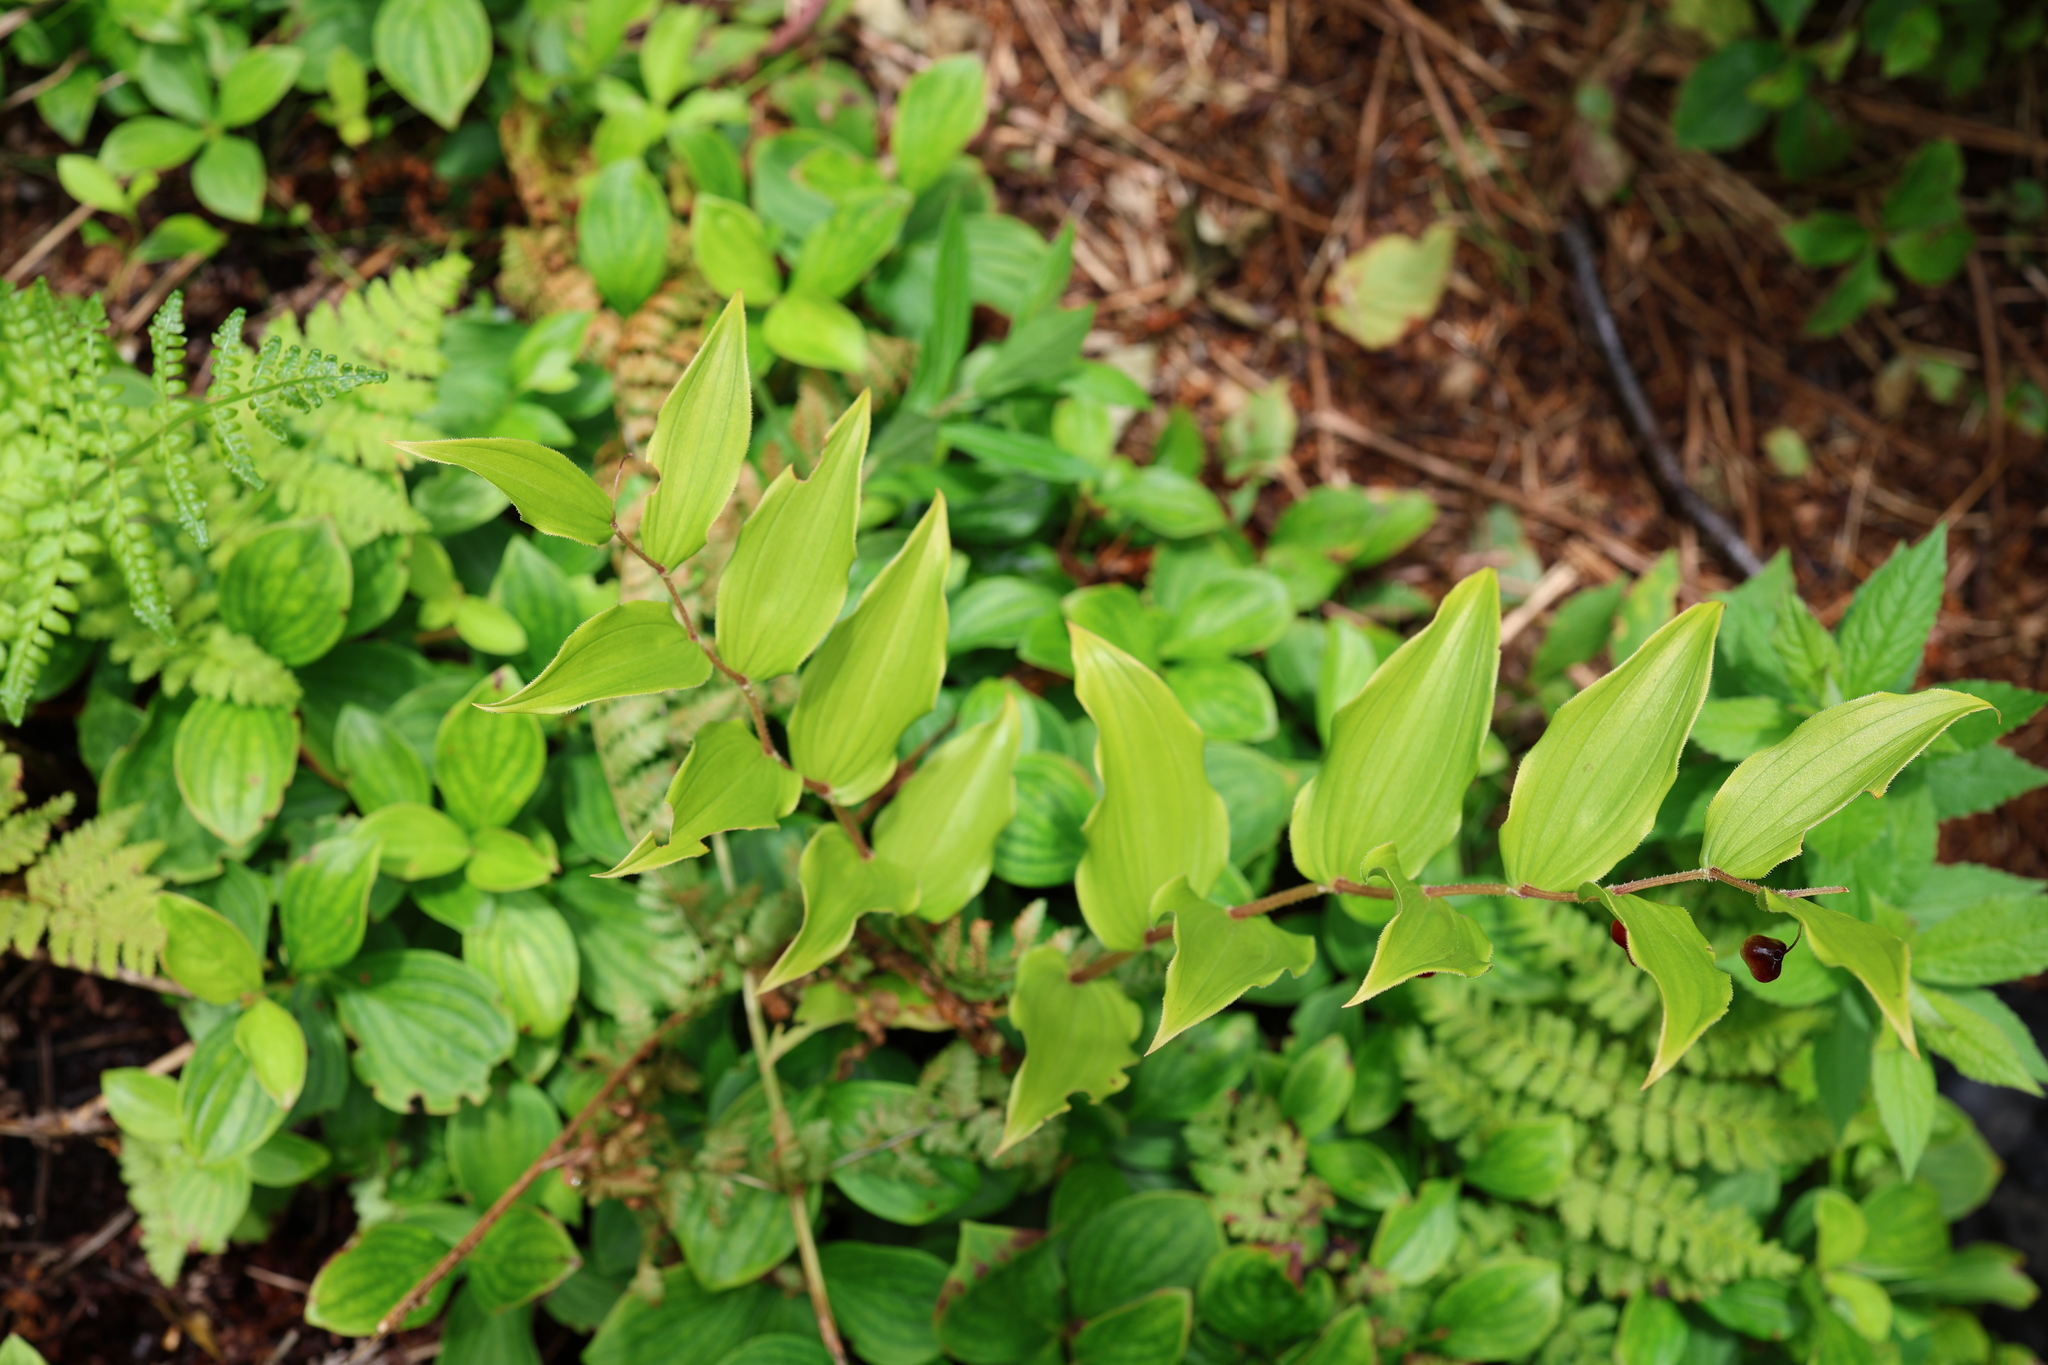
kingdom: Plantae
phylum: Tracheophyta
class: Liliopsida
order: Liliales
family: Liliaceae
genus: Streptopus
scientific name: Streptopus lanceolatus
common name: Rose mandarin
